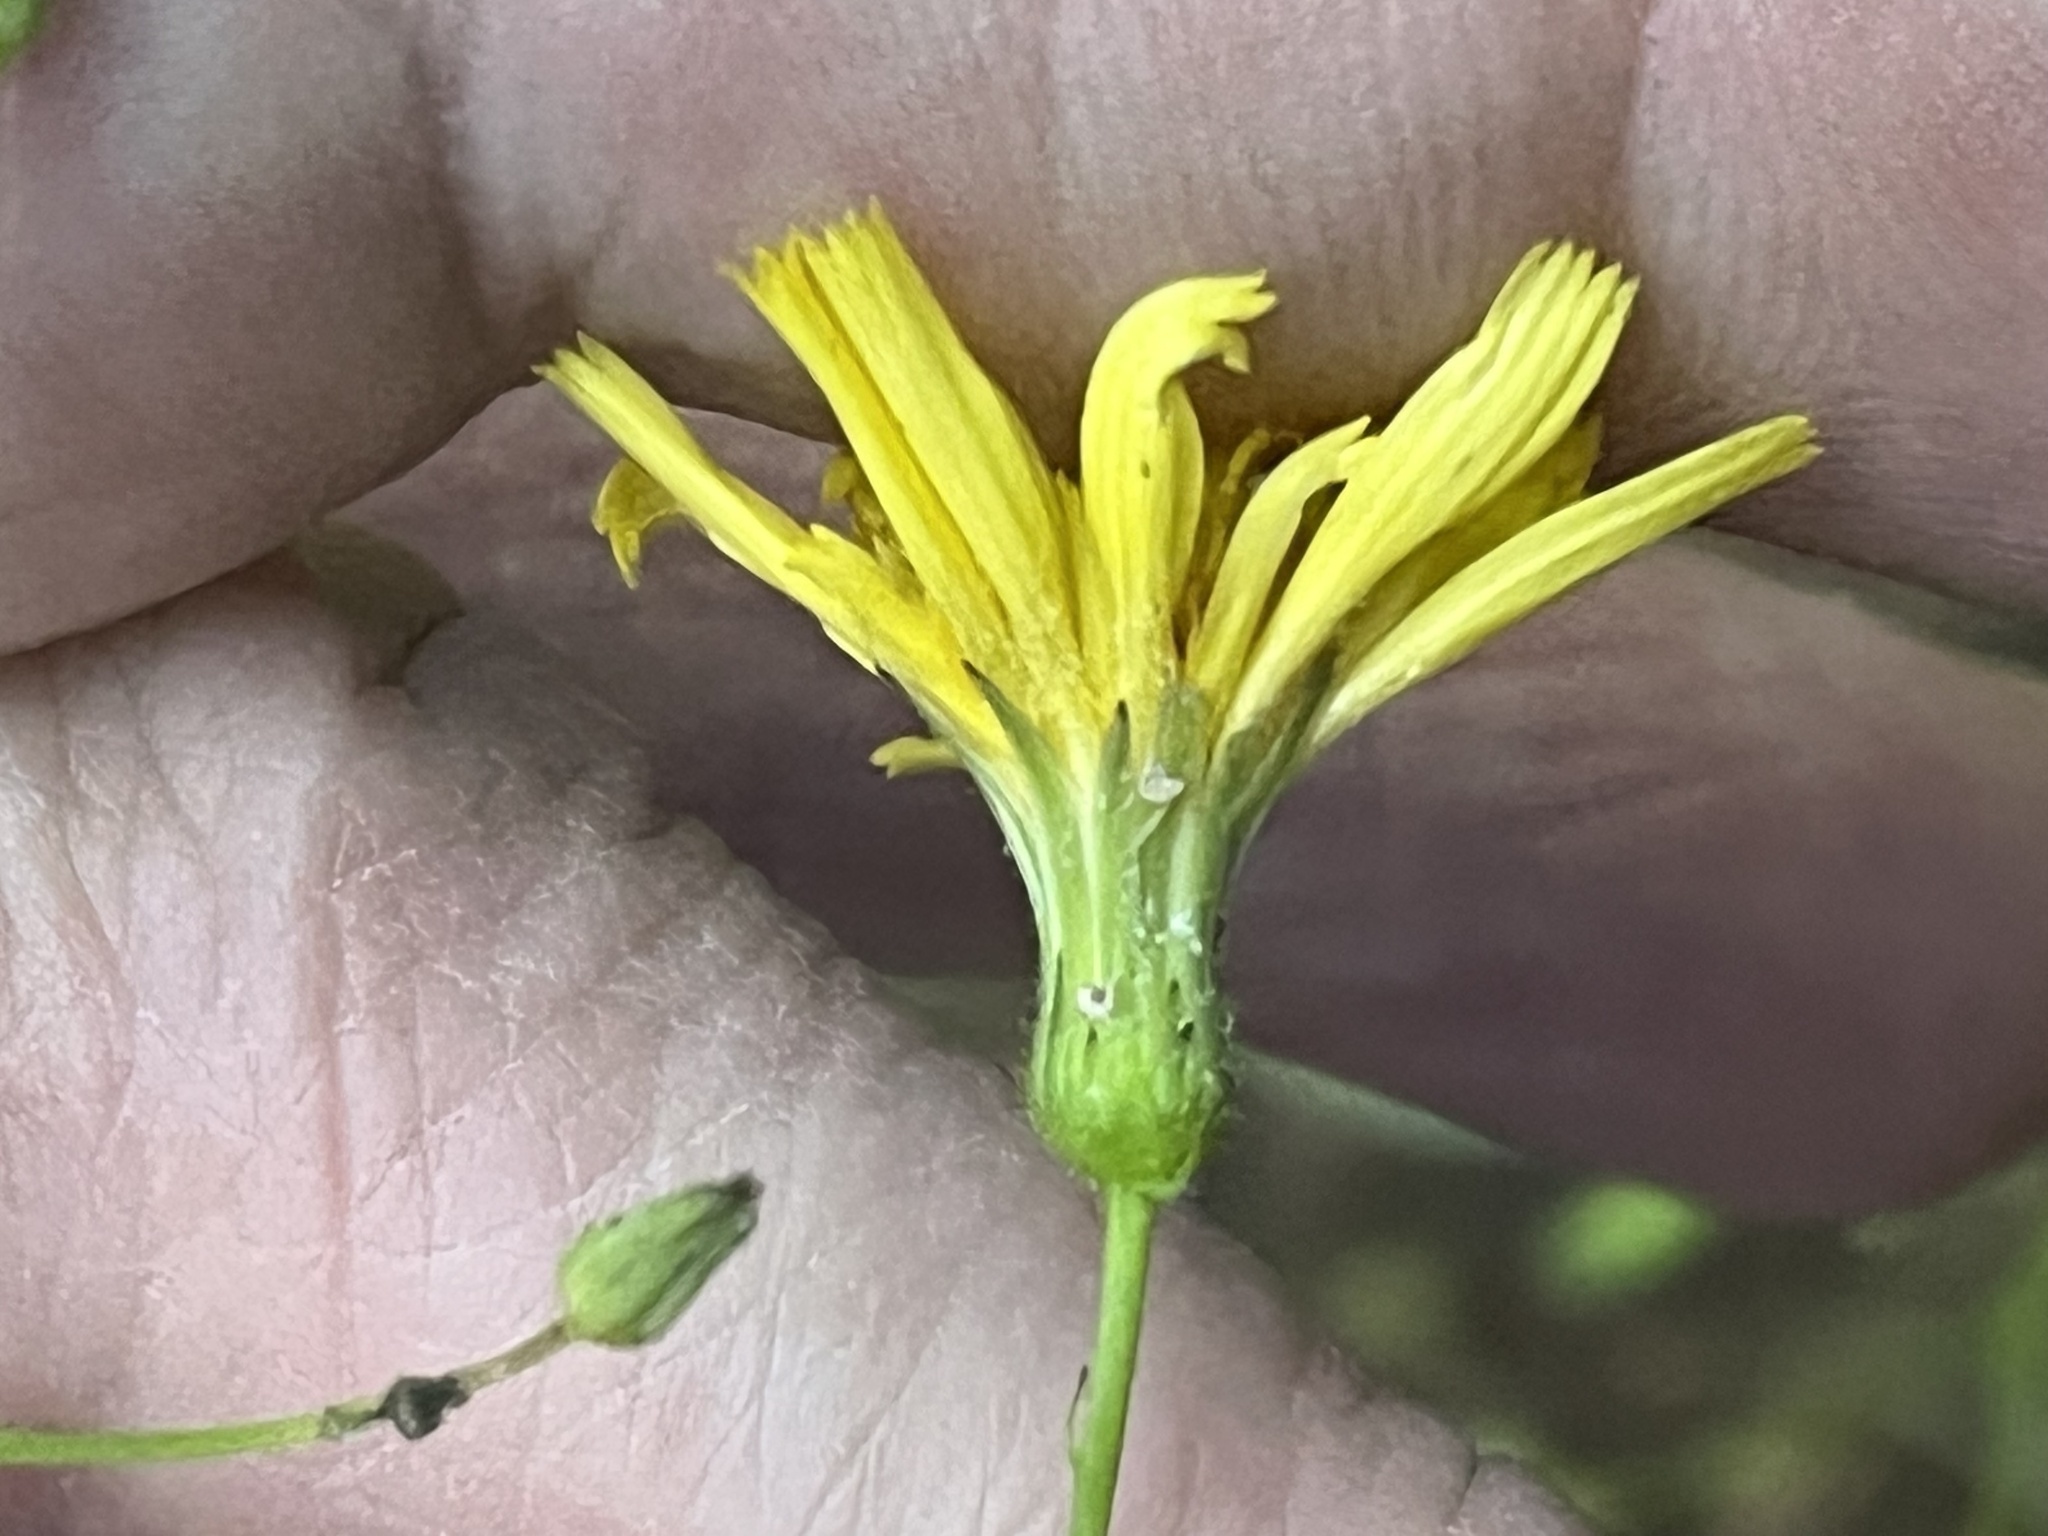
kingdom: Plantae
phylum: Tracheophyta
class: Magnoliopsida
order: Asterales
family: Asteraceae
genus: Hieracium
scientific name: Hieracium venosum
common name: Rattlesnake hawkweed
